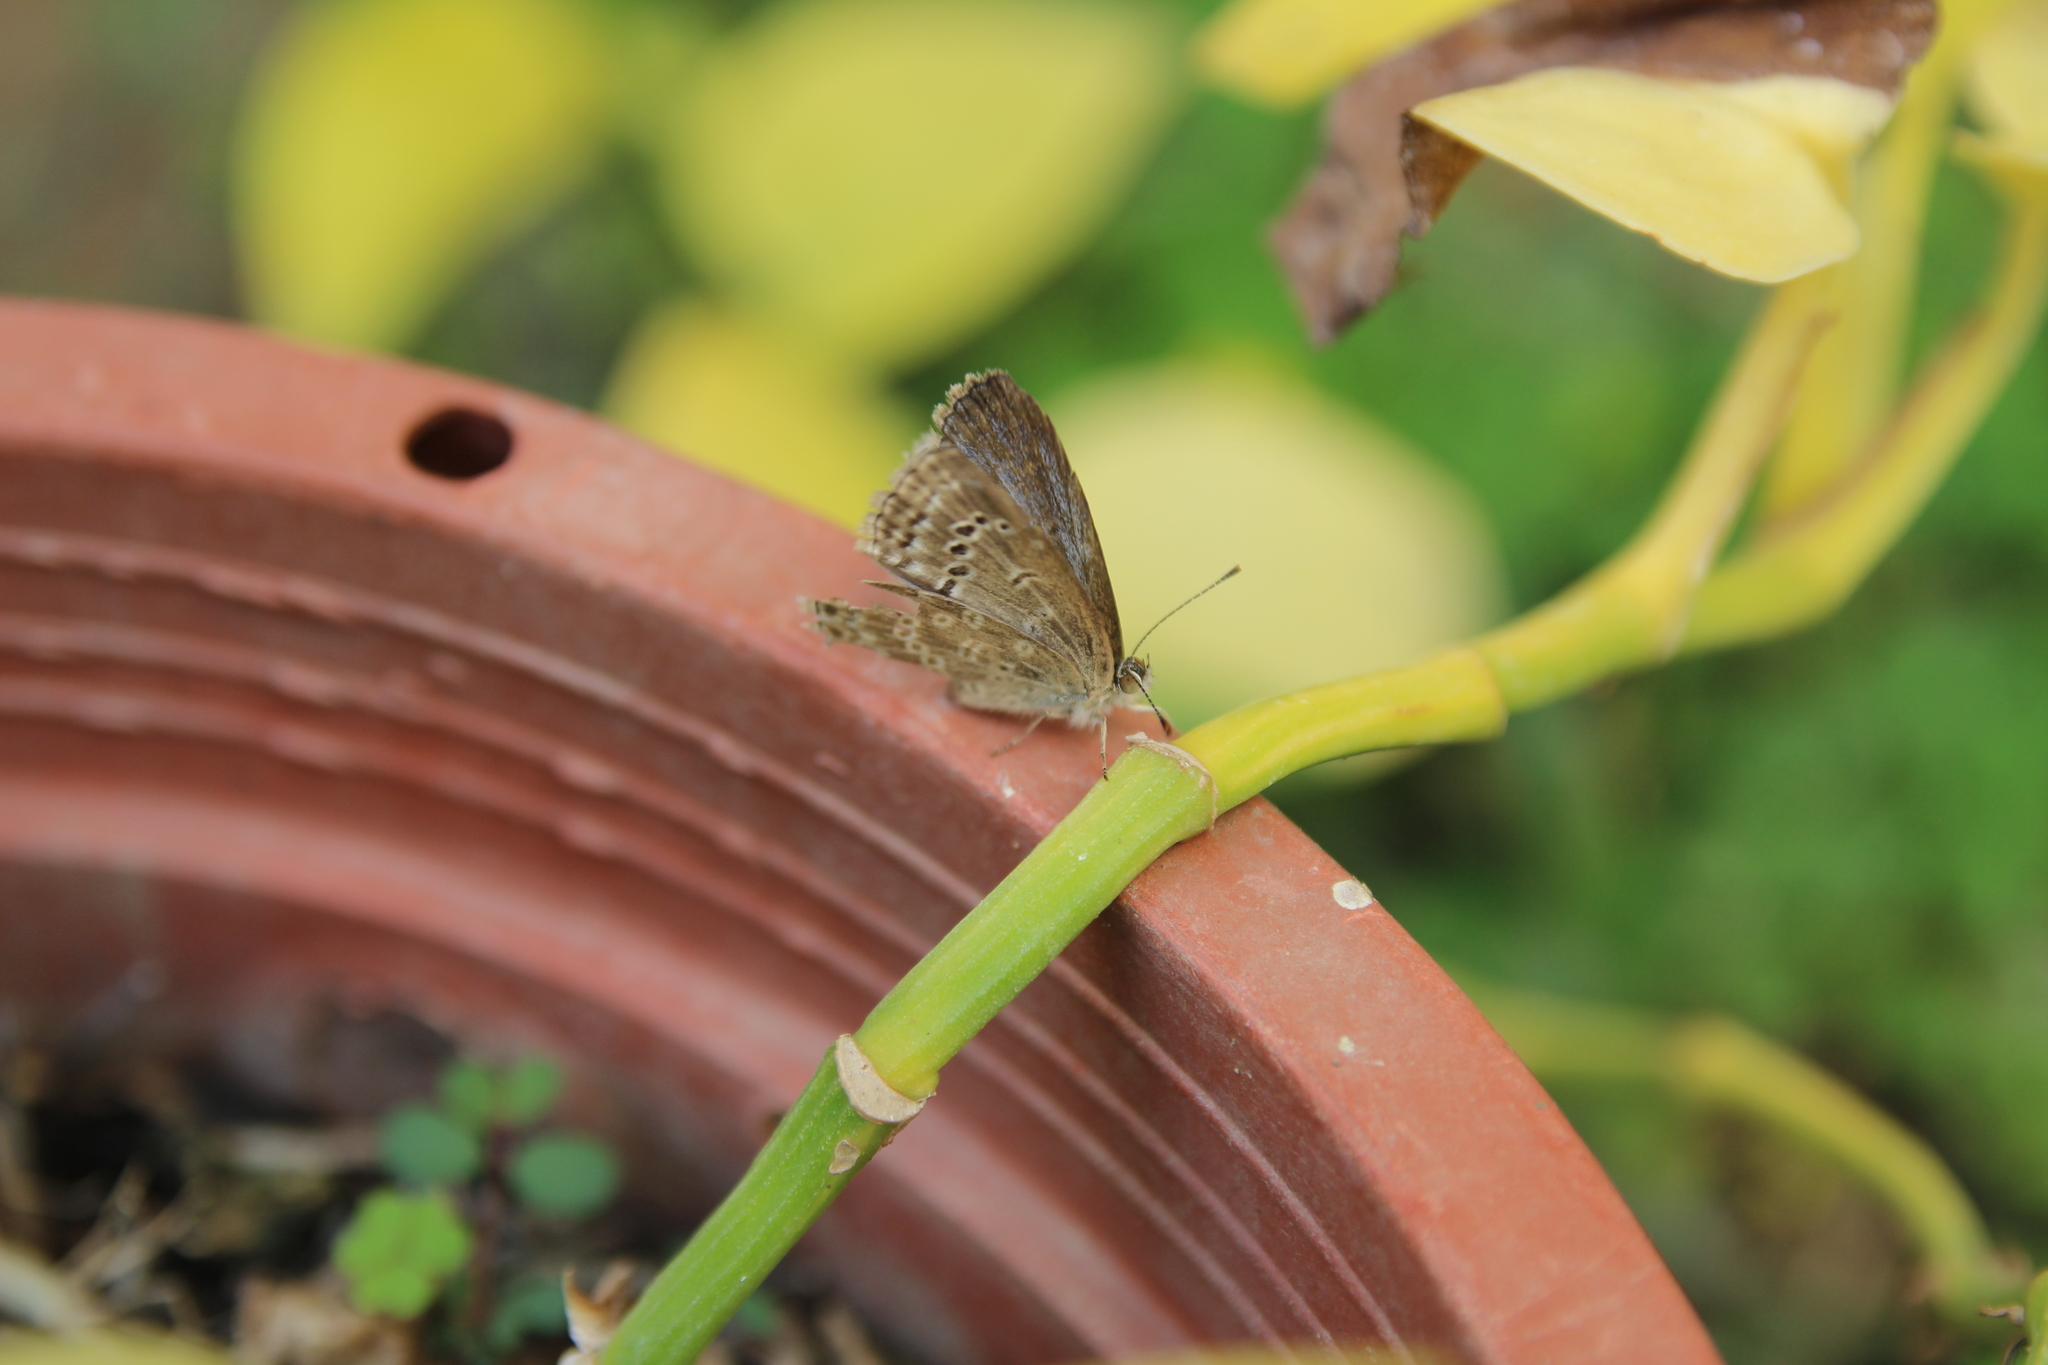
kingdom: Animalia
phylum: Arthropoda
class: Insecta
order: Lepidoptera
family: Lycaenidae
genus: Pseudozizeeria
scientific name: Pseudozizeeria maha
